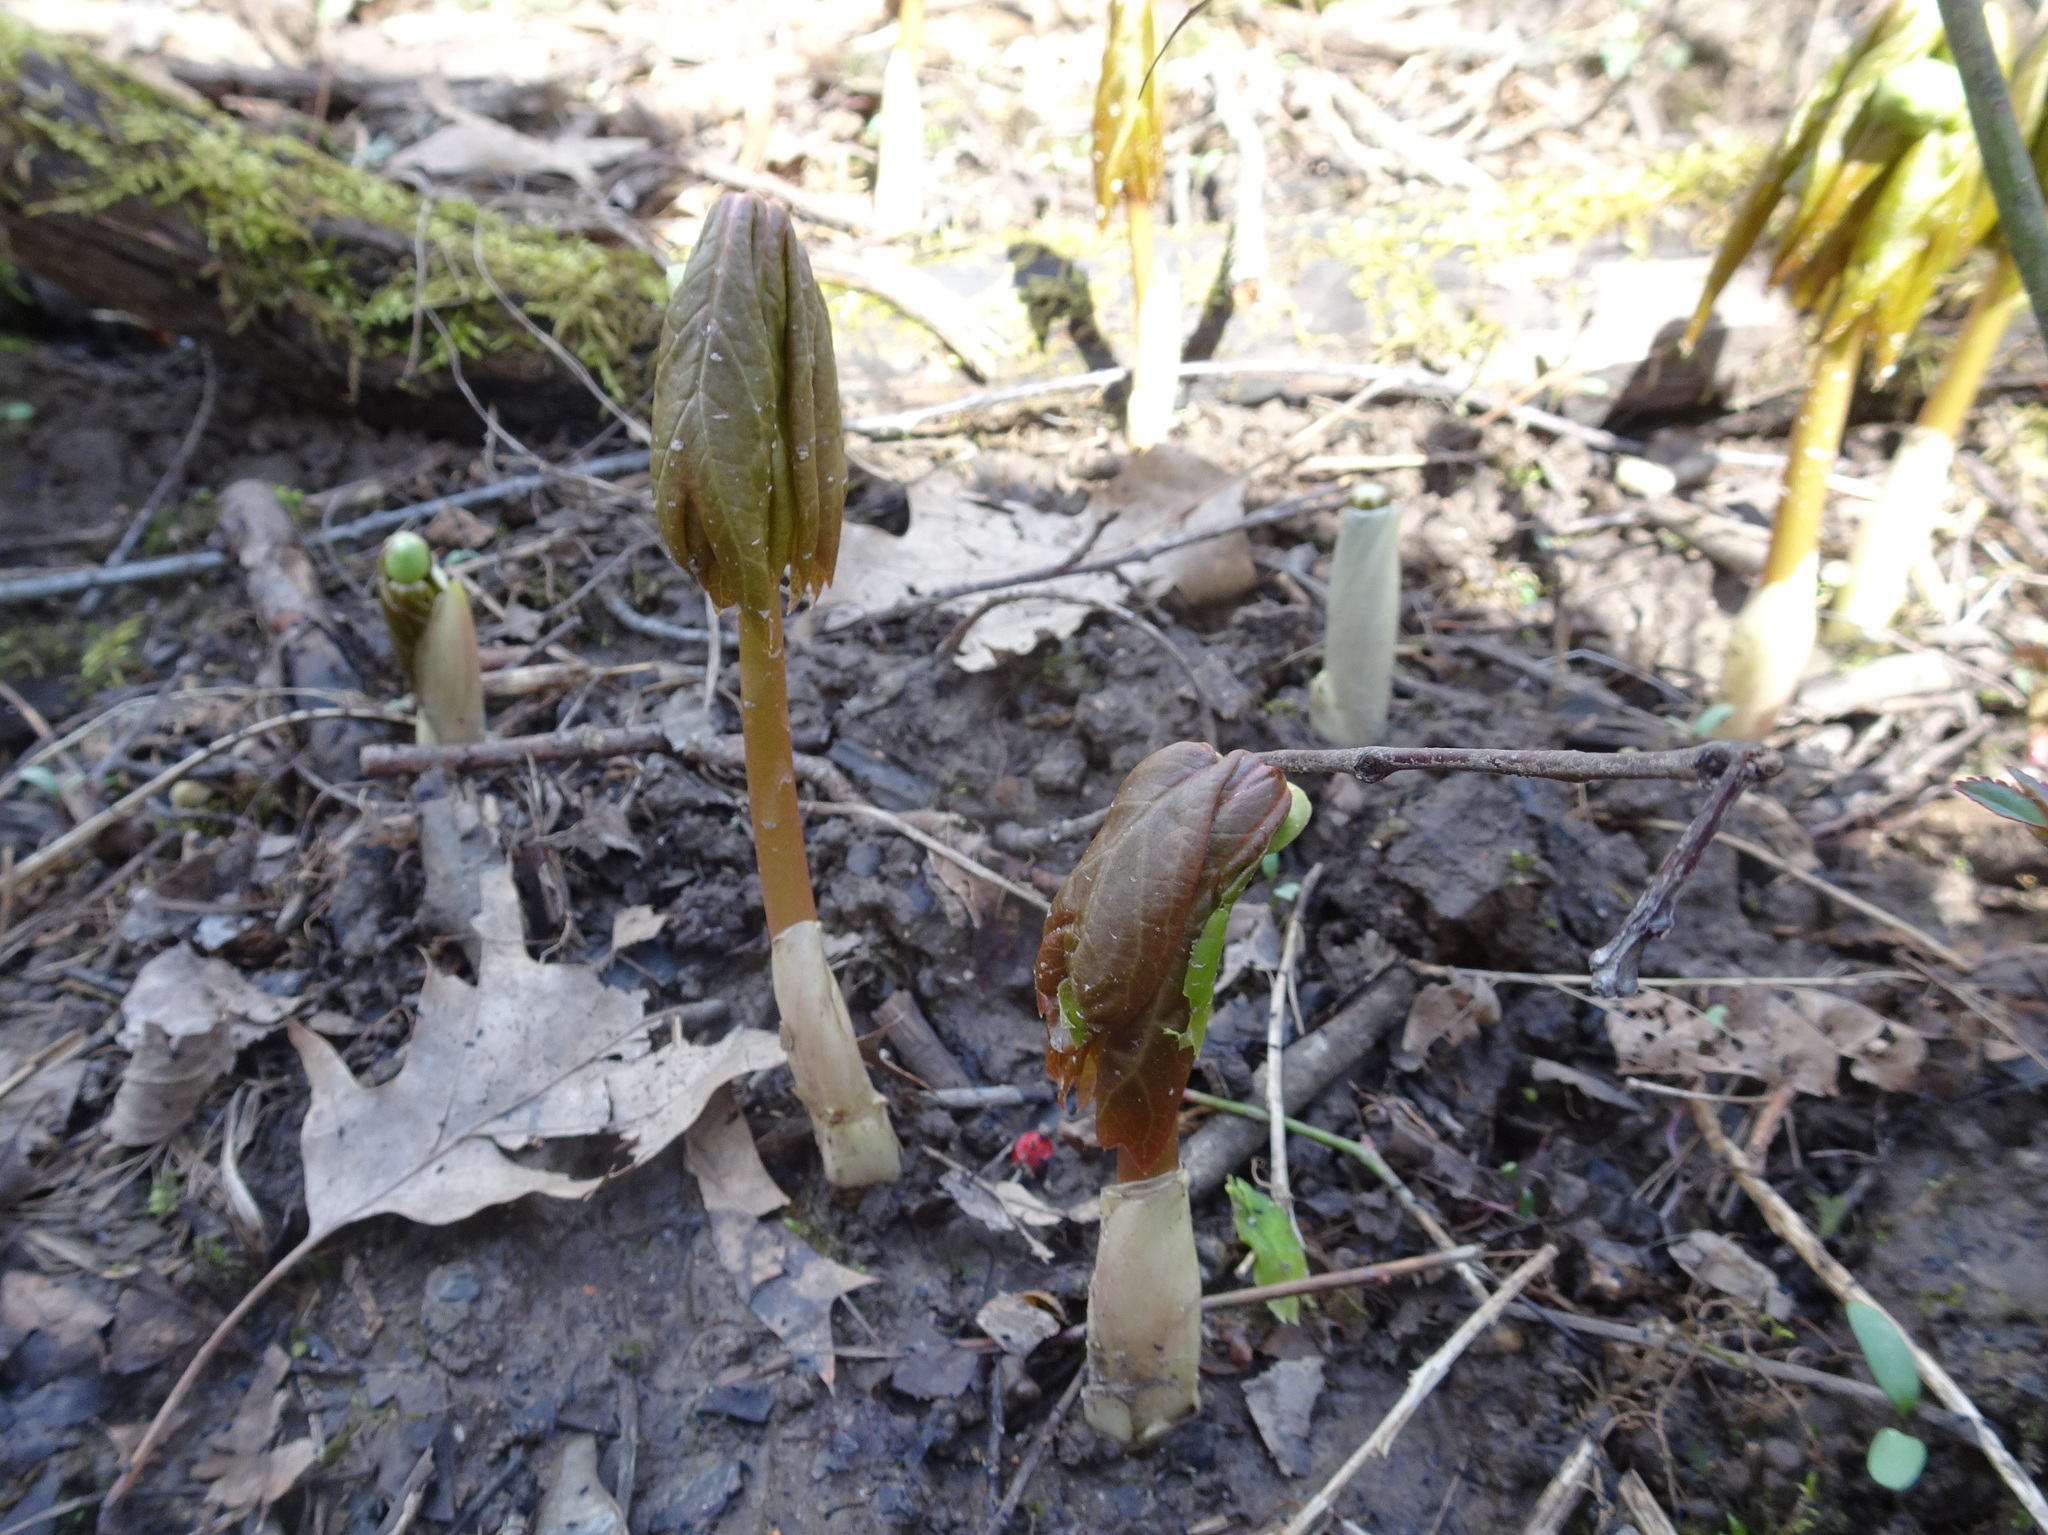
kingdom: Plantae
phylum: Tracheophyta
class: Magnoliopsida
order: Ranunculales
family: Berberidaceae
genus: Podophyllum
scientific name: Podophyllum peltatum
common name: Wild mandrake
